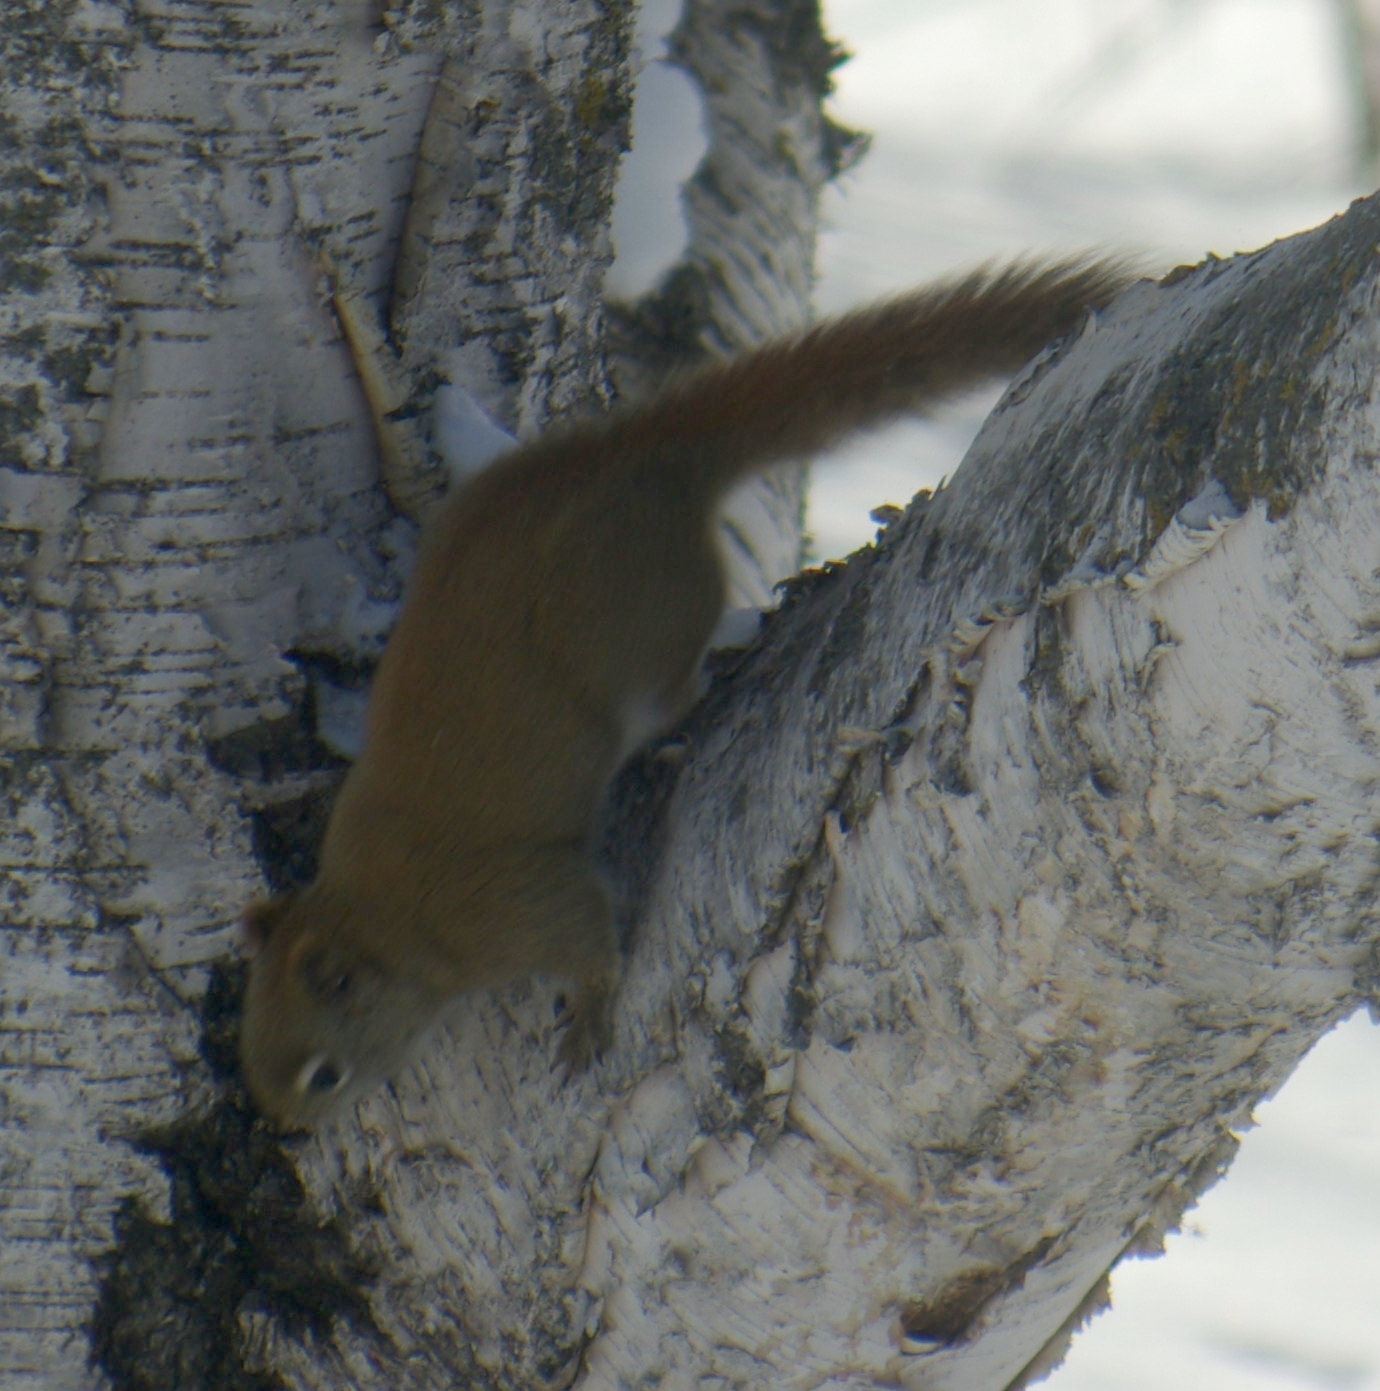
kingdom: Animalia
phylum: Chordata
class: Mammalia
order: Rodentia
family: Sciuridae
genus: Tamiasciurus
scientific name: Tamiasciurus hudsonicus
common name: Red squirrel
